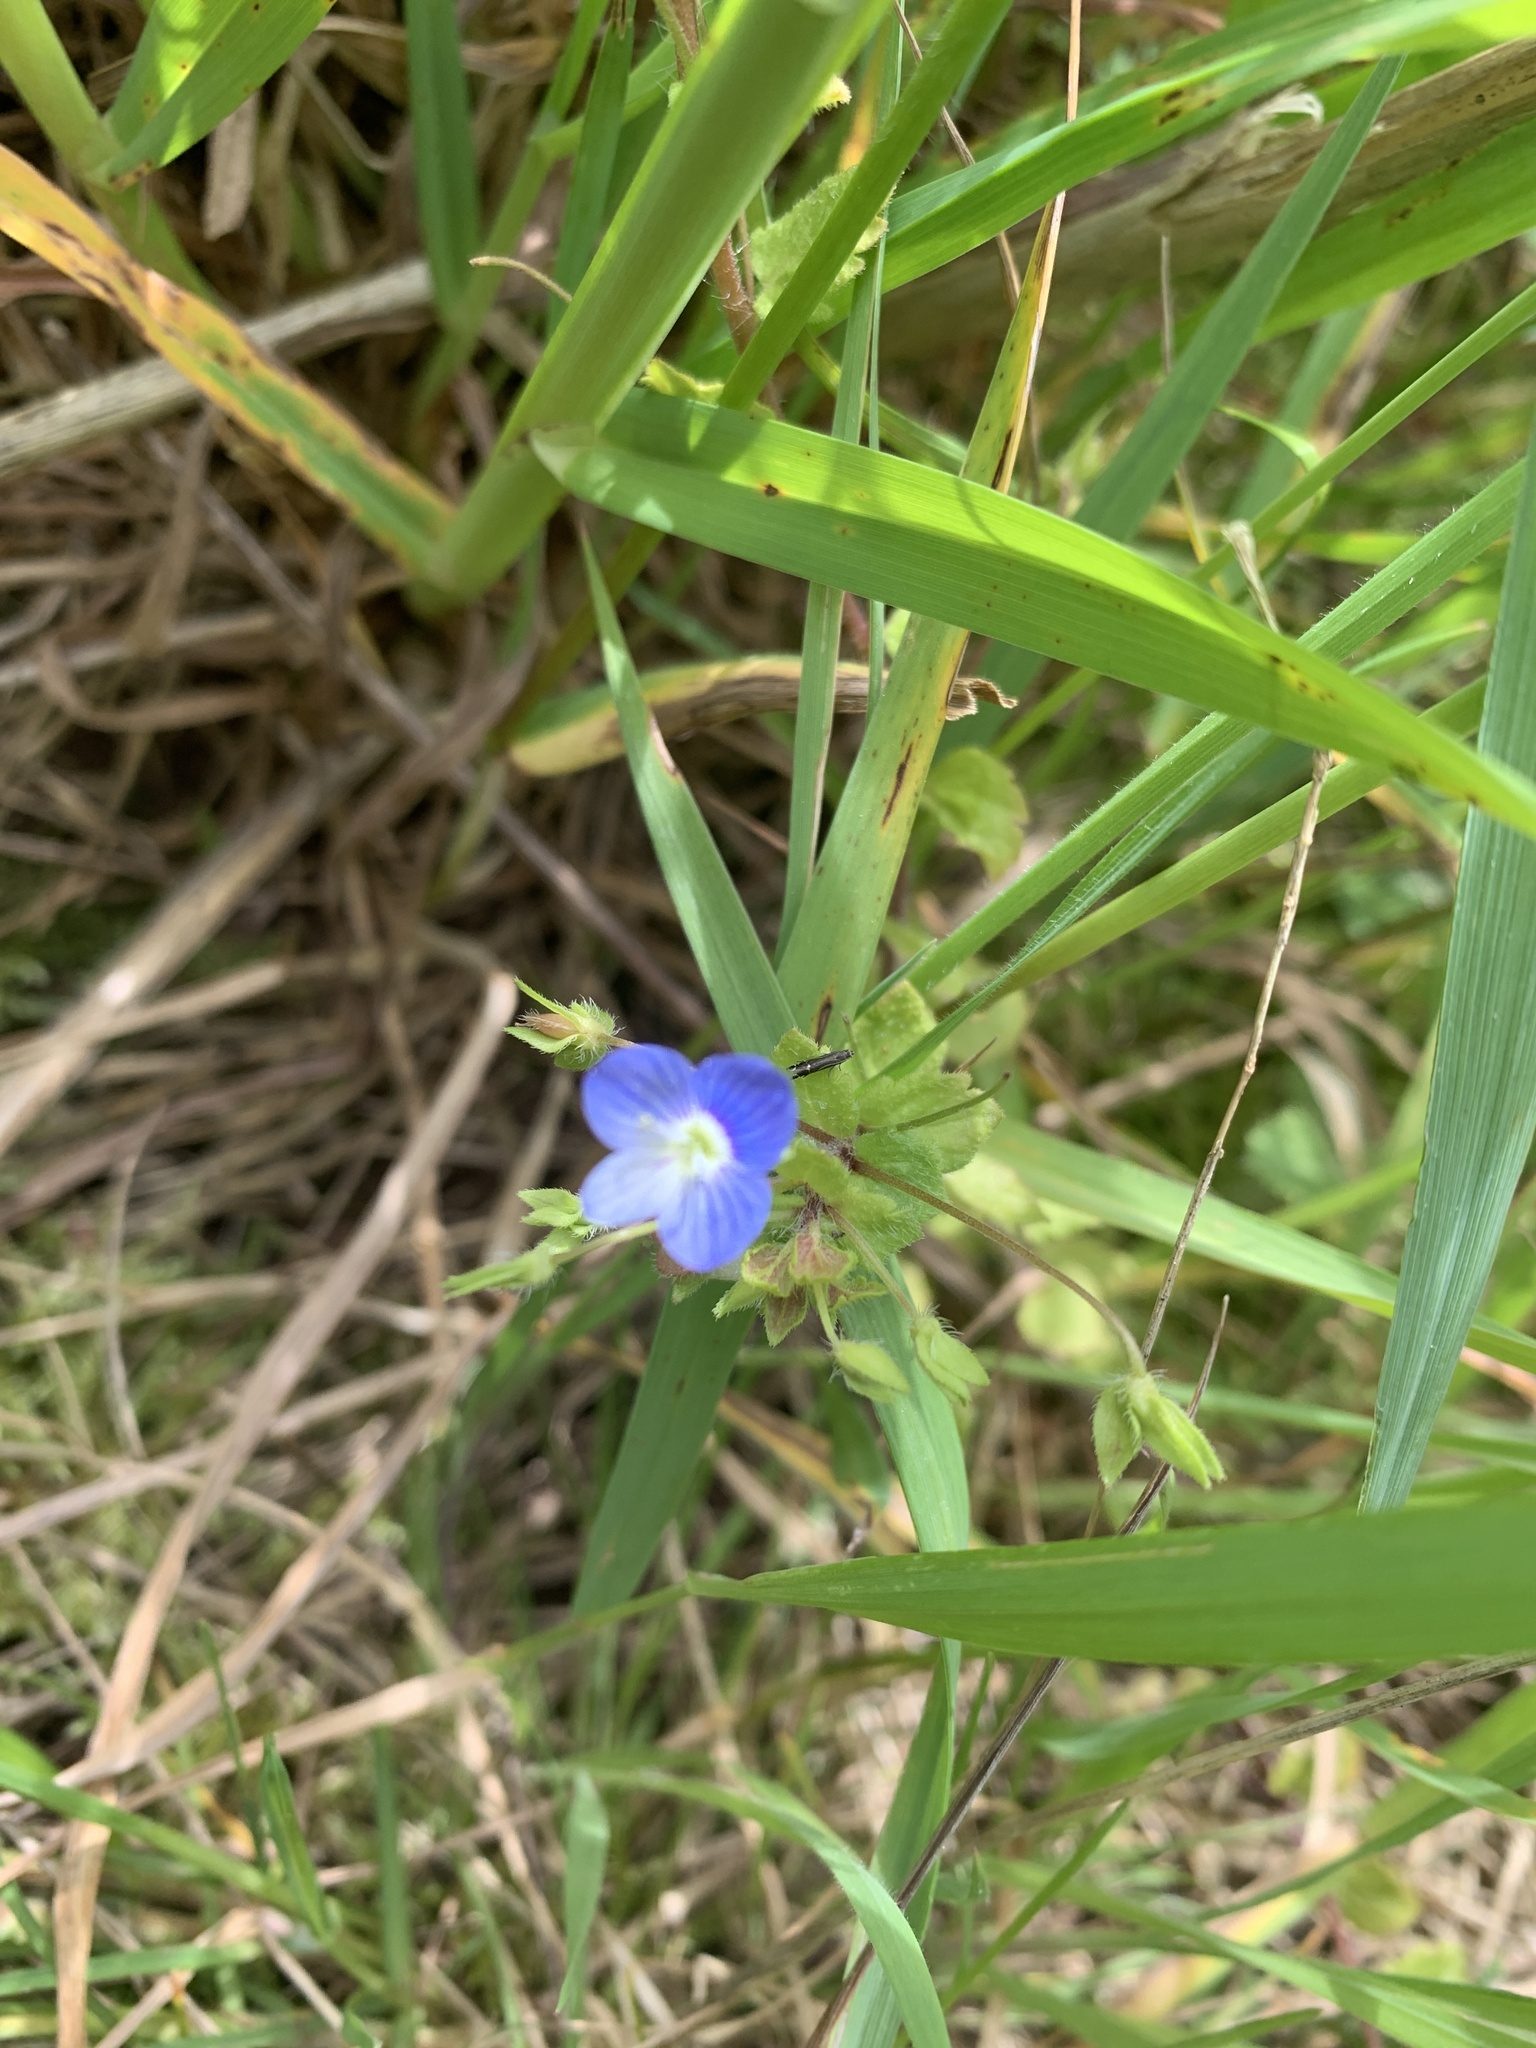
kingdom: Plantae
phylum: Tracheophyta
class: Magnoliopsida
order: Lamiales
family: Plantaginaceae
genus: Veronica
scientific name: Veronica persica
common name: Common field-speedwell
